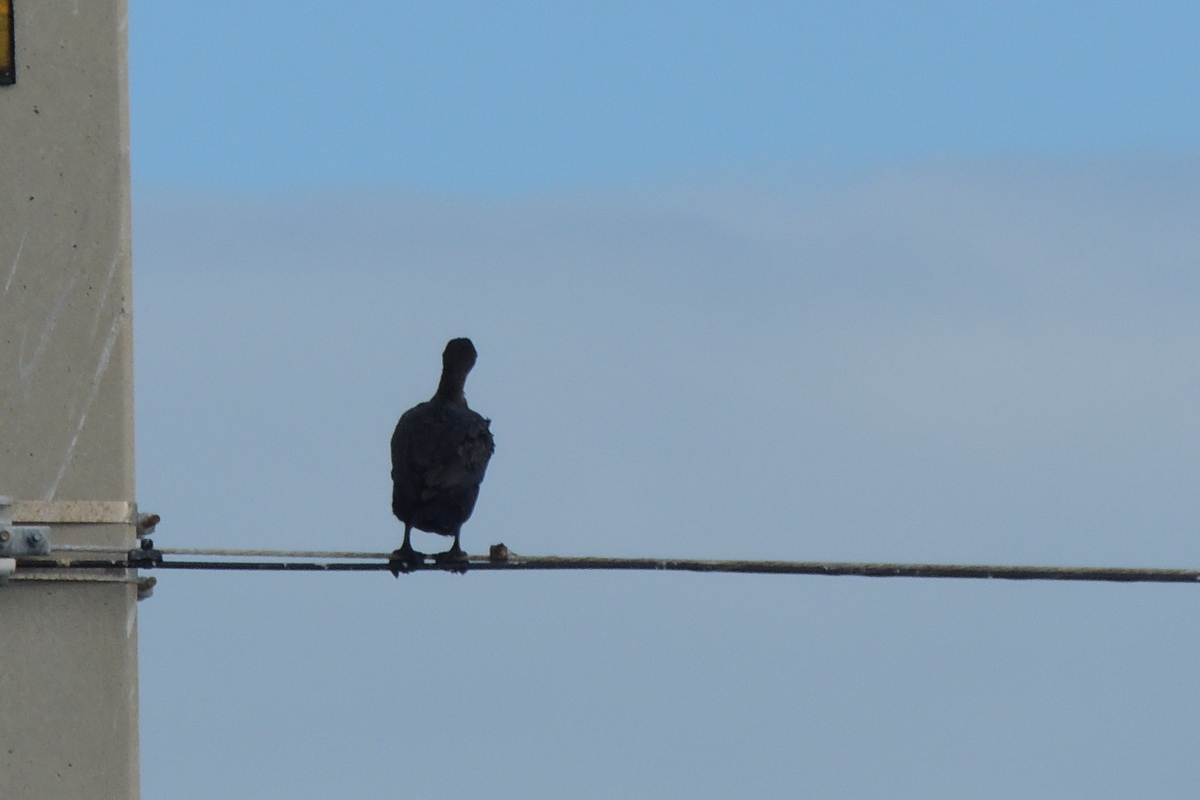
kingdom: Animalia
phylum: Chordata
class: Aves
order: Suliformes
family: Phalacrocoracidae
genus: Phalacrocorax
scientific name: Phalacrocorax auritus
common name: Double-crested cormorant
